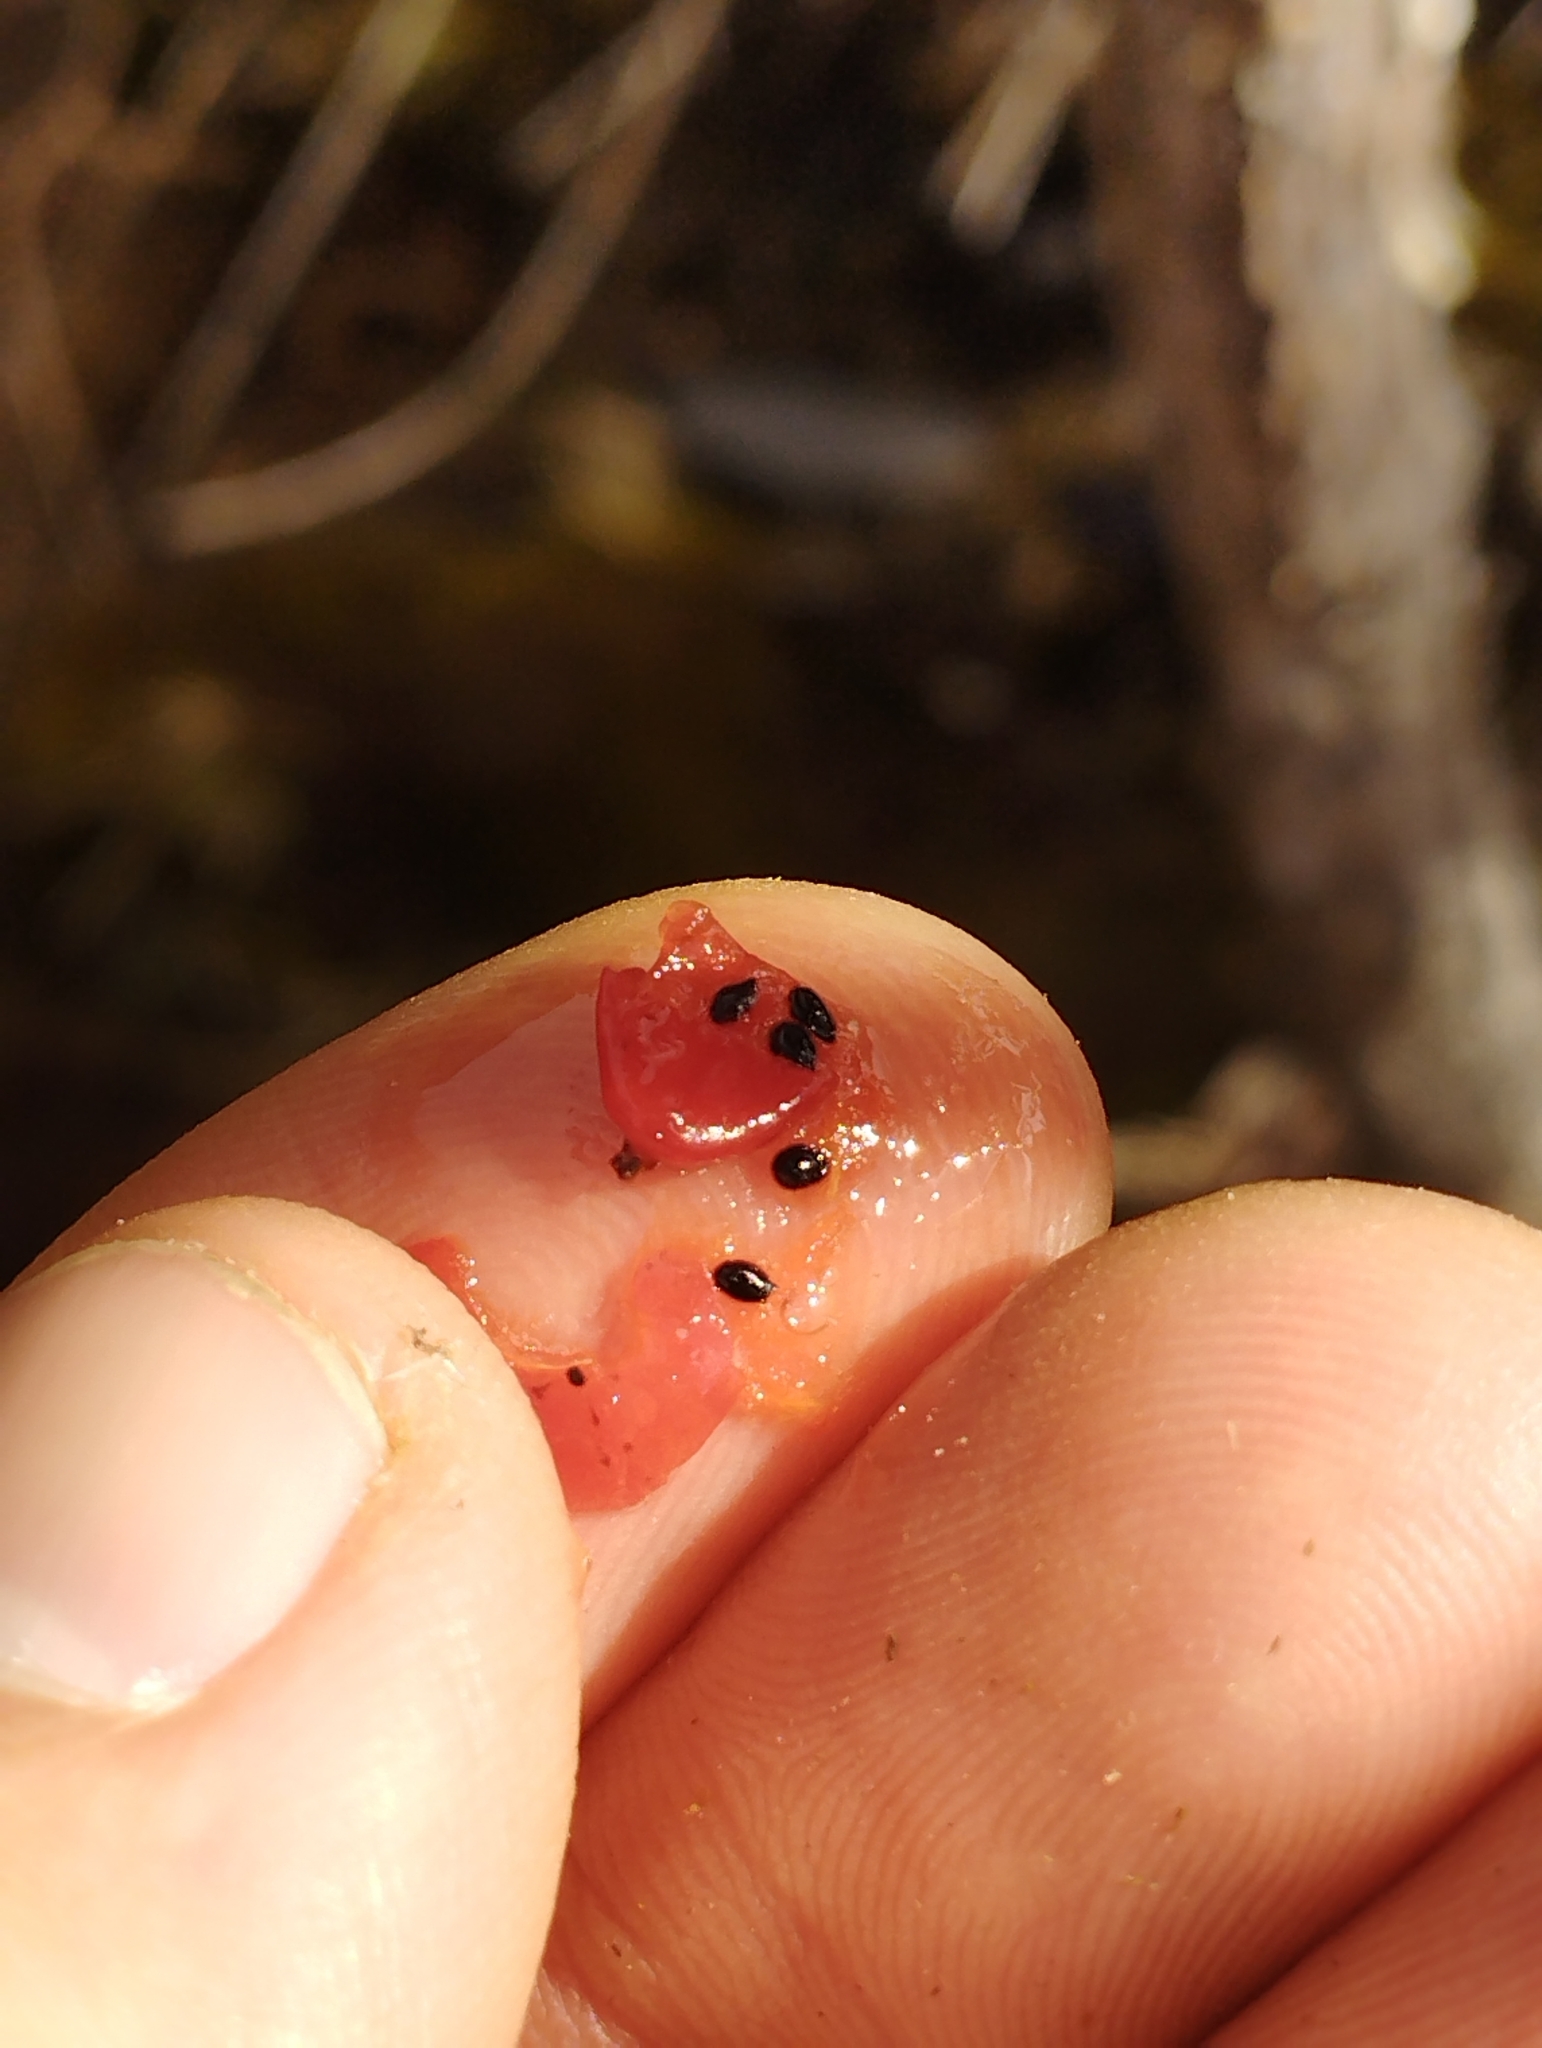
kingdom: Plantae
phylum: Tracheophyta
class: Liliopsida
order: Asparagales
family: Asteliaceae
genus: Astelia
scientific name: Astelia linearis
